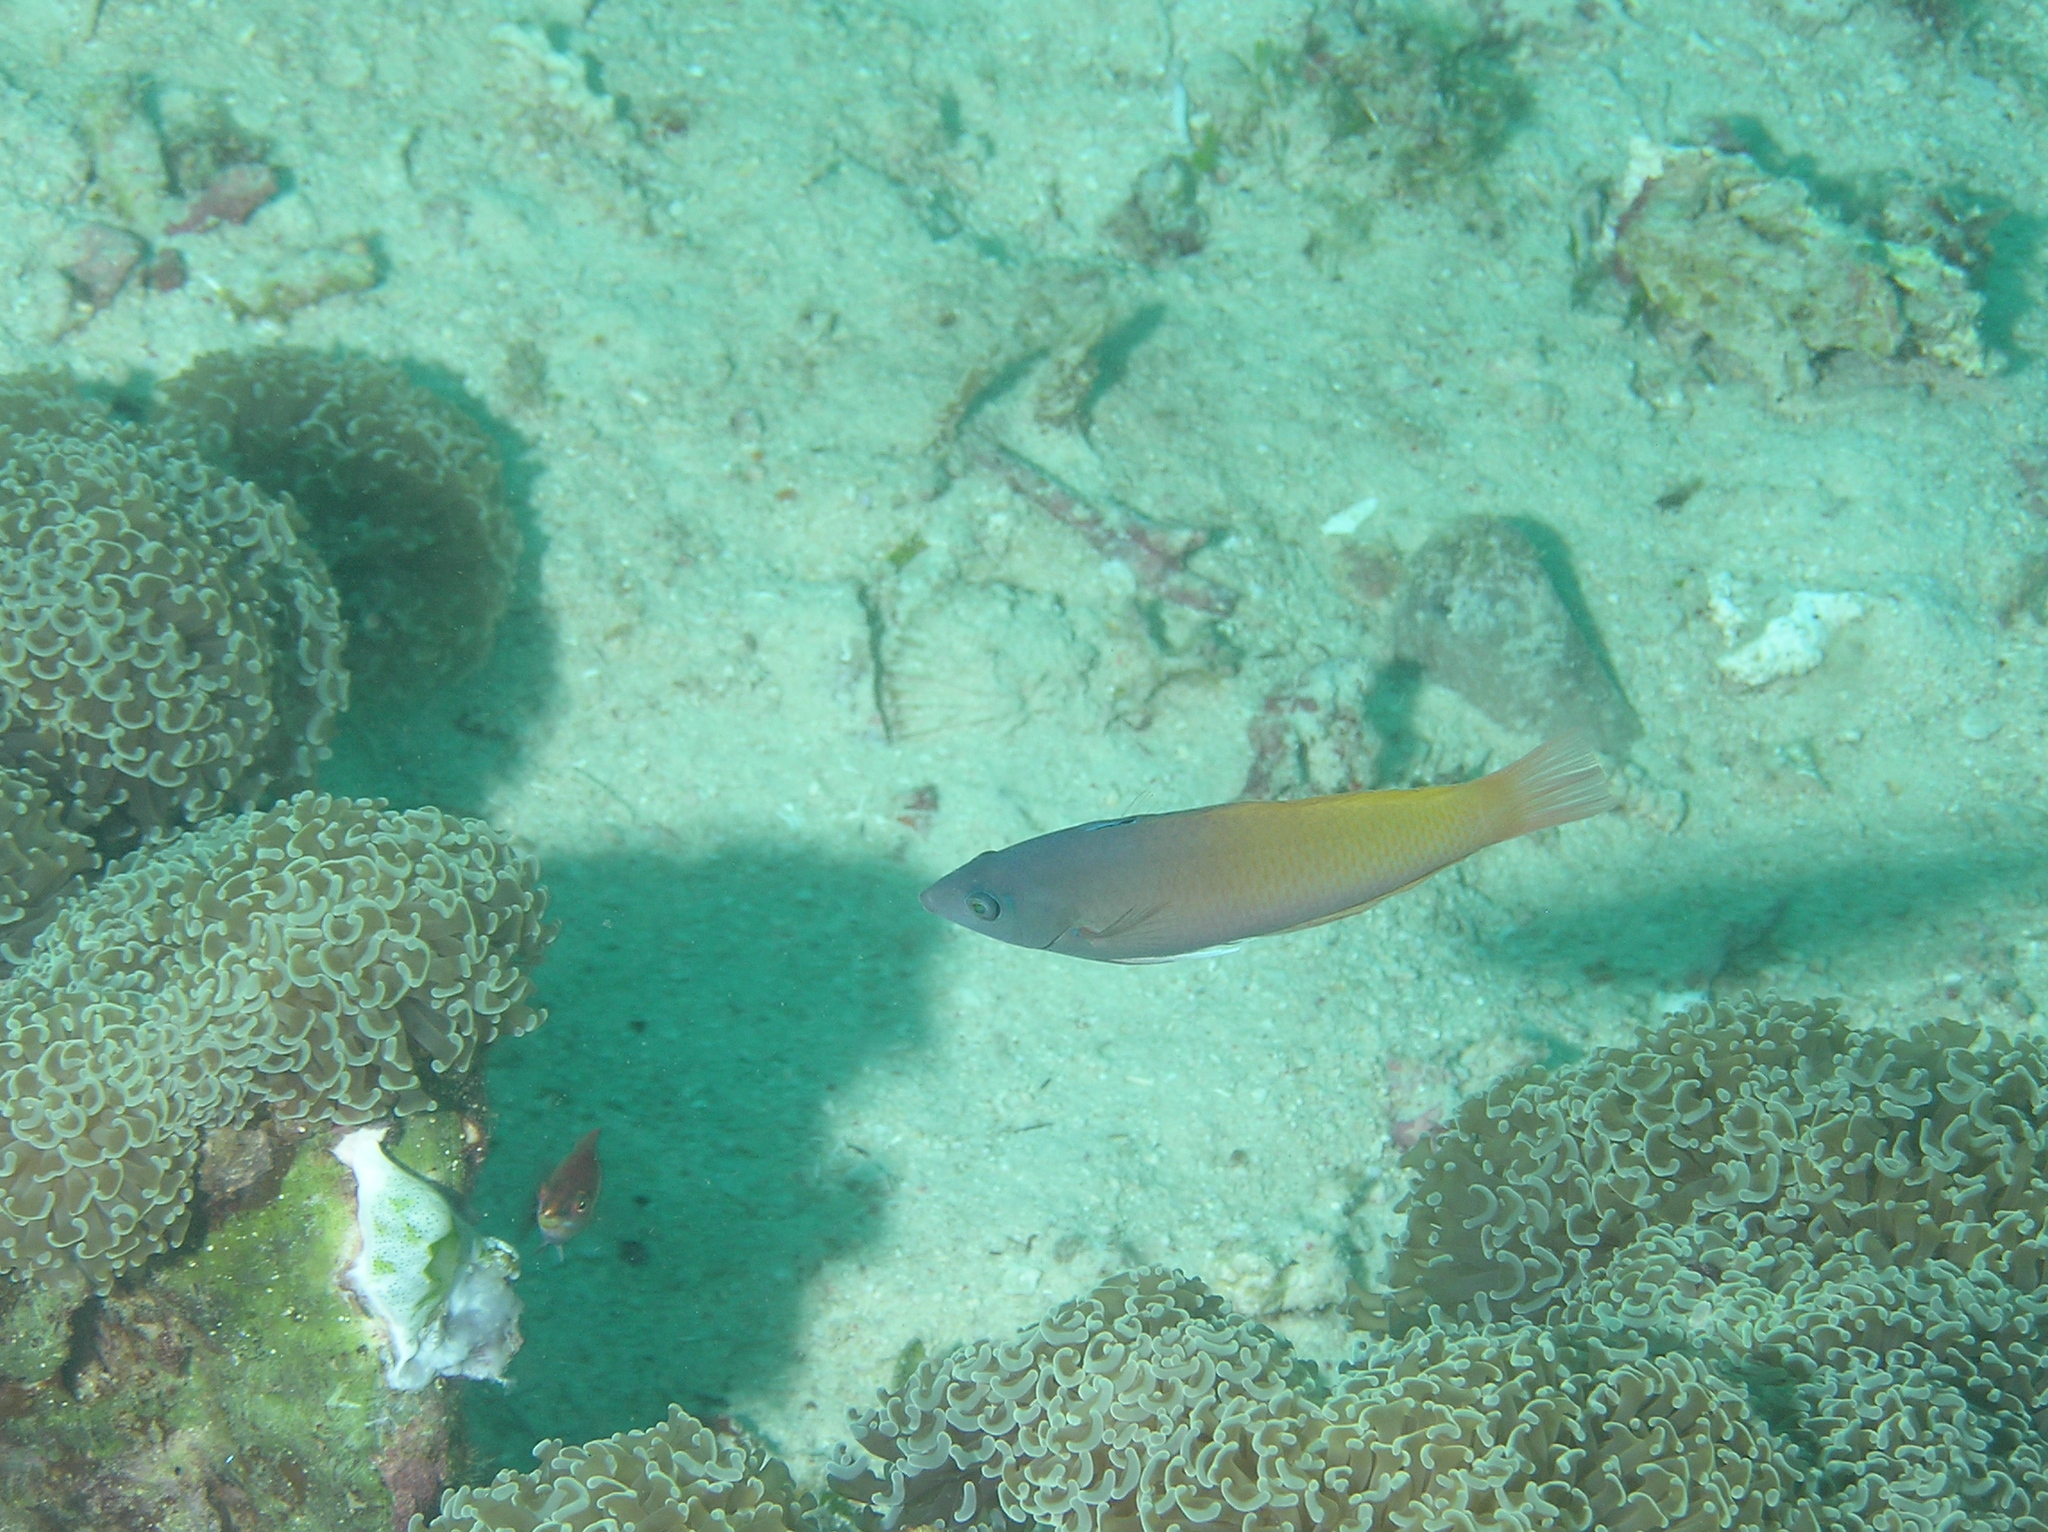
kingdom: Animalia
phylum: Chordata
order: Perciformes
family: Labridae
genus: Halichoeres
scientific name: Halichoeres prosopeion
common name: Half-grey wrasse
